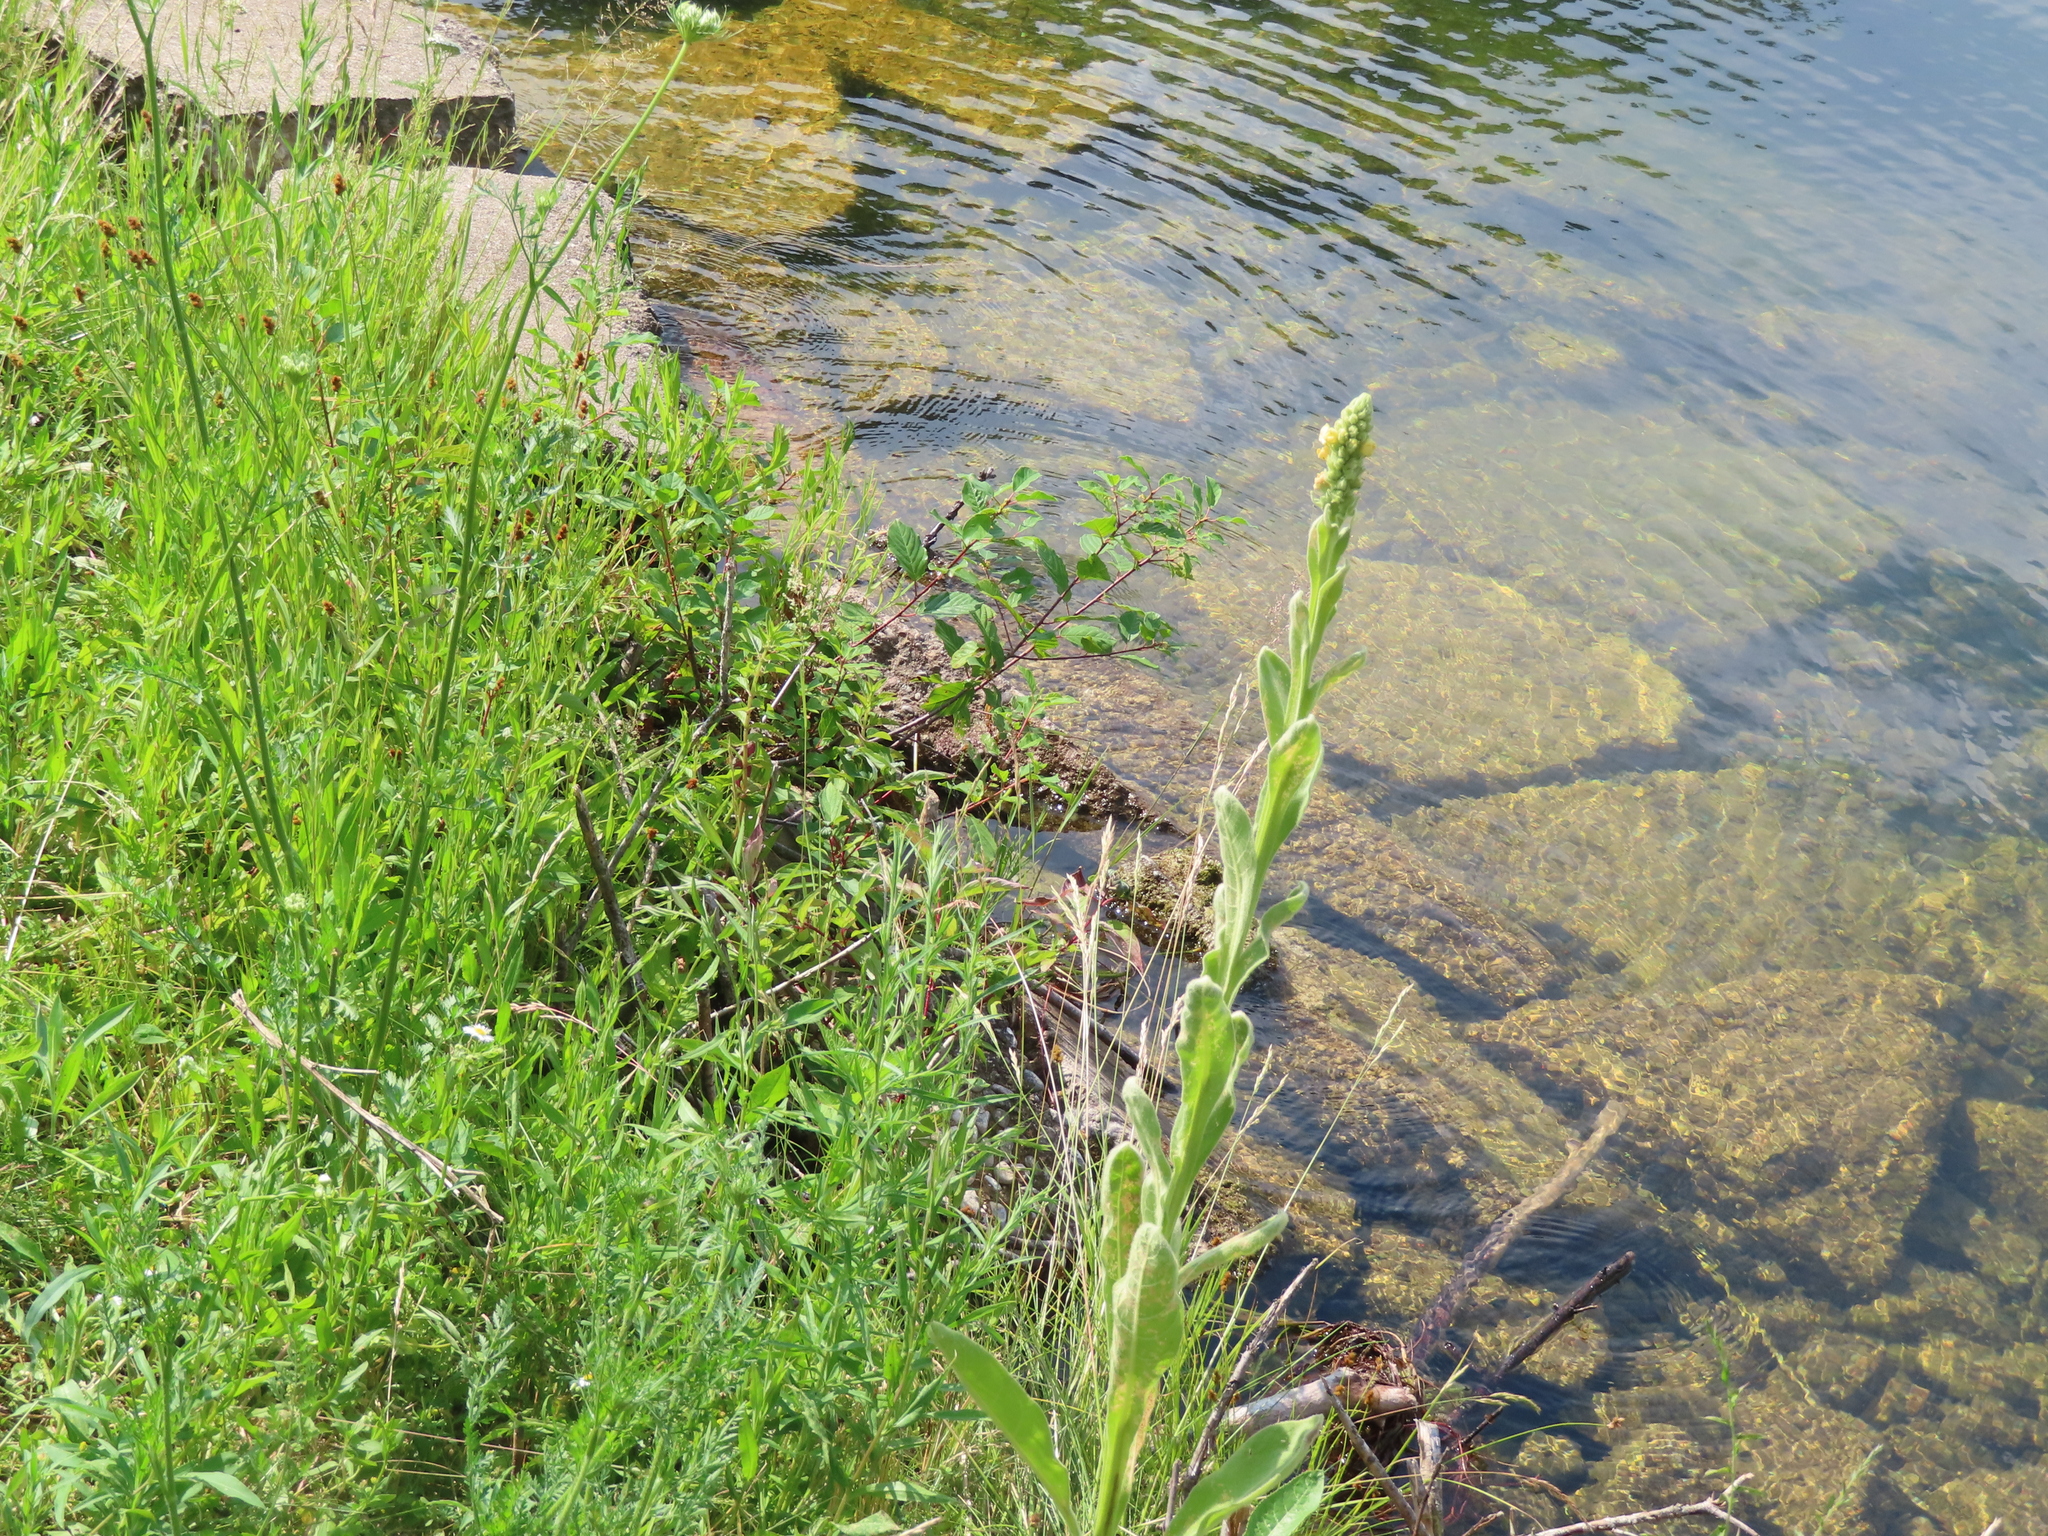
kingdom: Plantae
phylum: Tracheophyta
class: Magnoliopsida
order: Lamiales
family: Scrophulariaceae
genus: Verbascum
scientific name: Verbascum thapsus
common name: Common mullein
